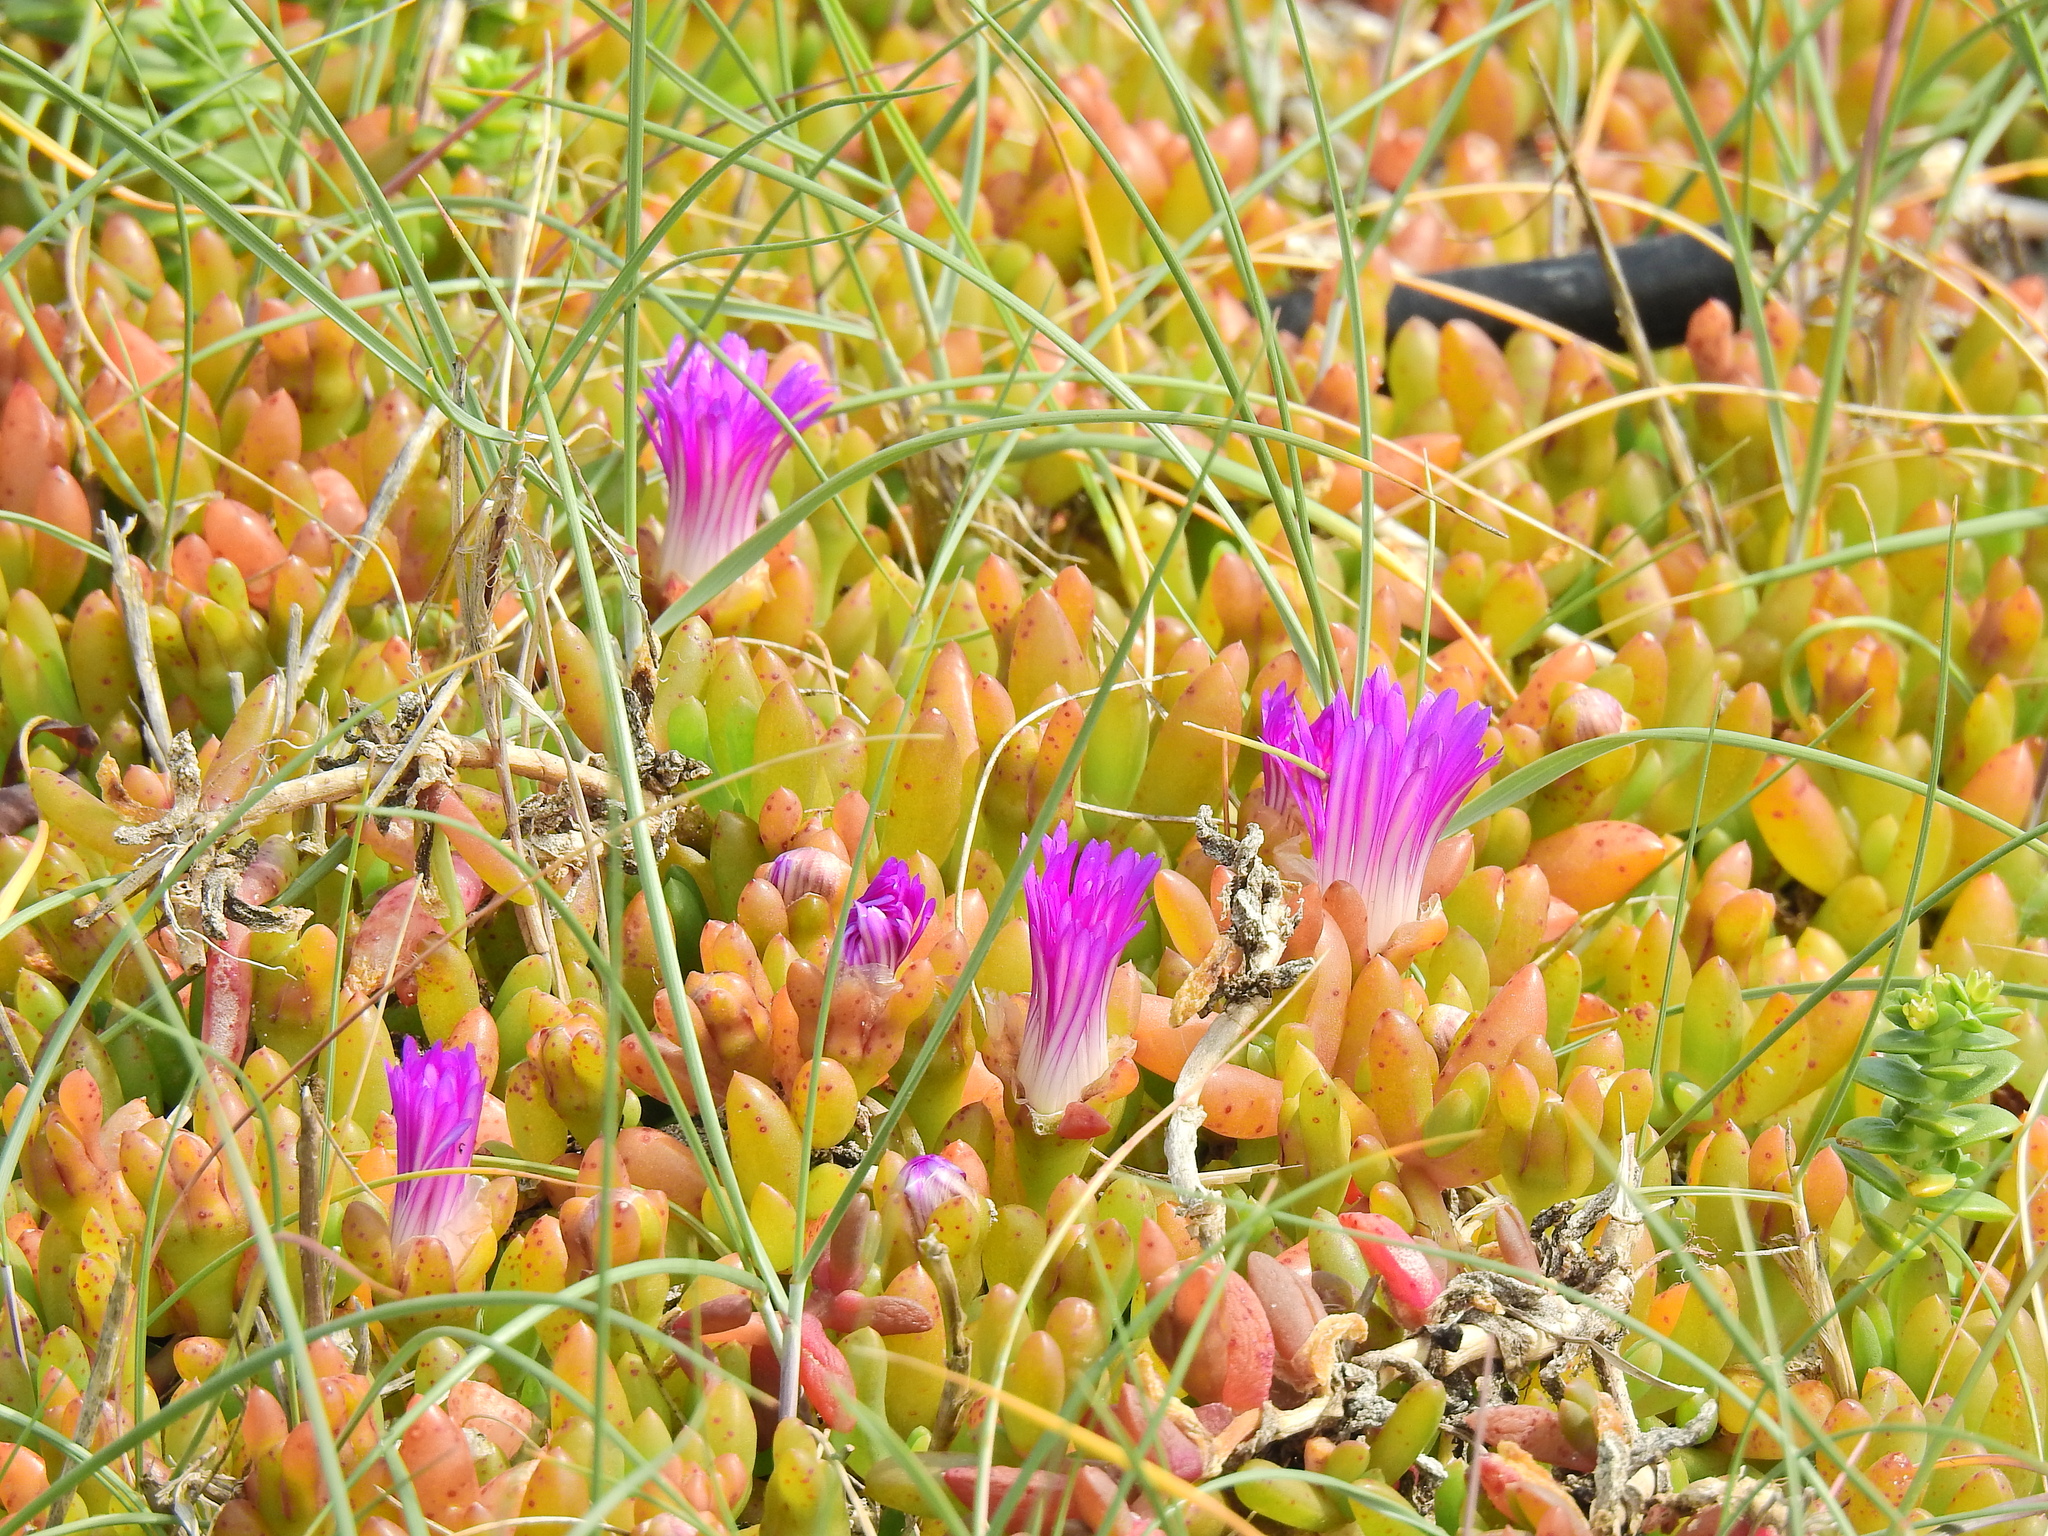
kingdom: Plantae
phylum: Tracheophyta
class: Magnoliopsida
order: Caryophyllales
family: Aizoaceae
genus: Disphyma
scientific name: Disphyma crassifolium
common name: Purple dewplant
